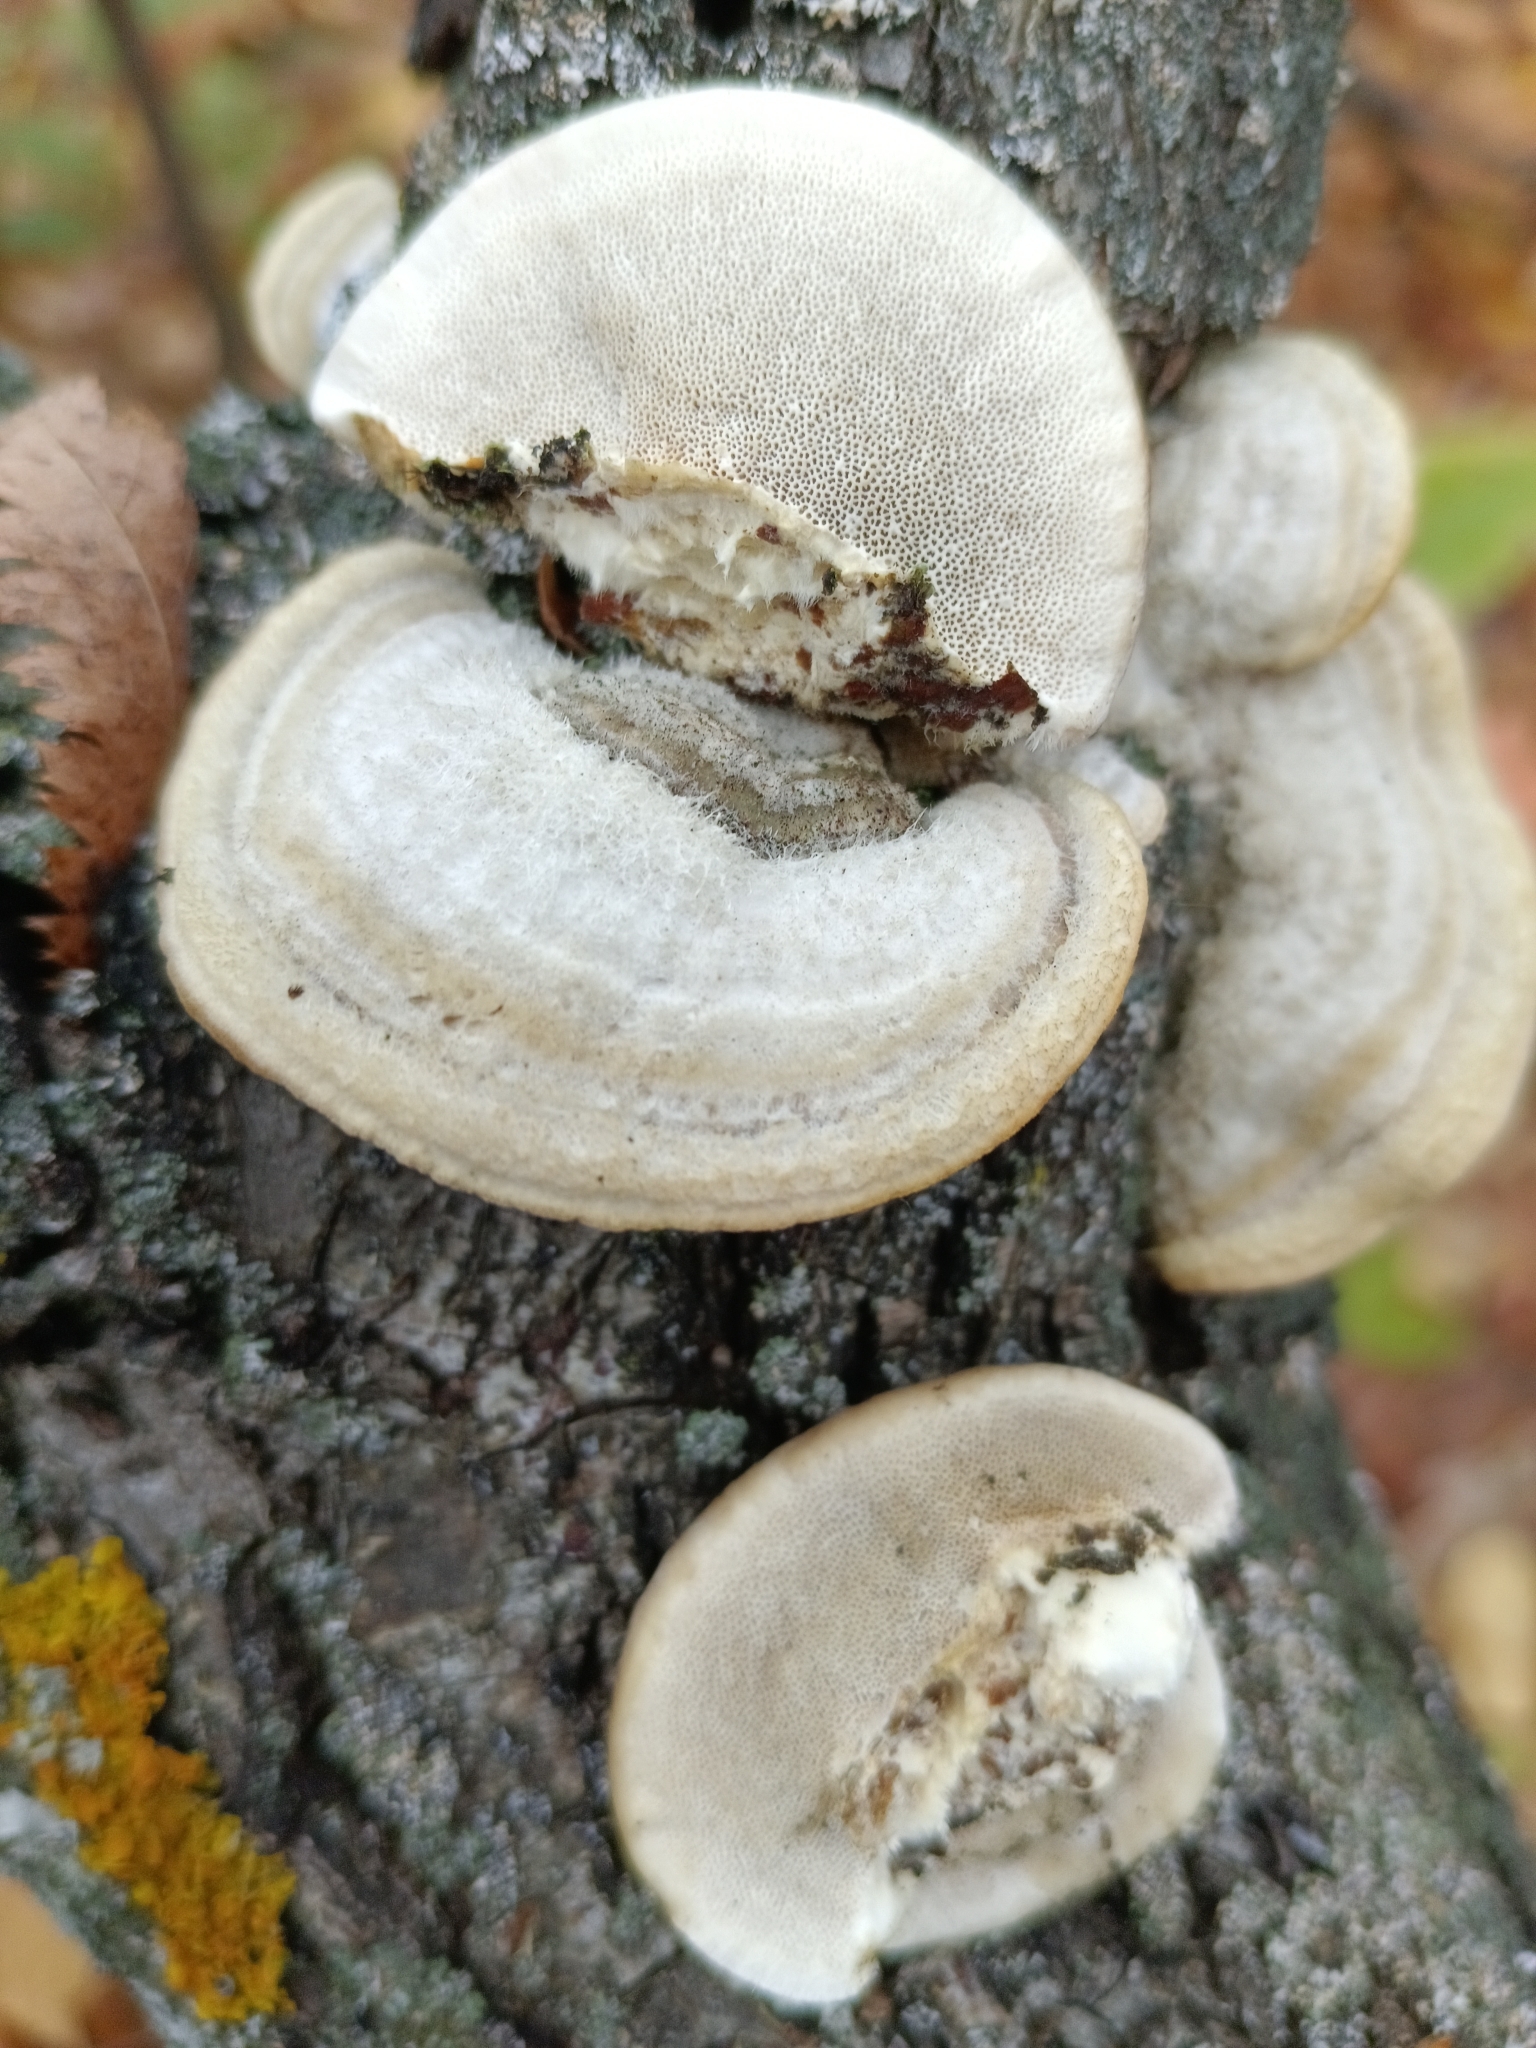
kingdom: Fungi
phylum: Basidiomycota
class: Agaricomycetes
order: Polyporales
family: Polyporaceae
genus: Trametes
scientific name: Trametes hirsuta
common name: Hairy bracket
